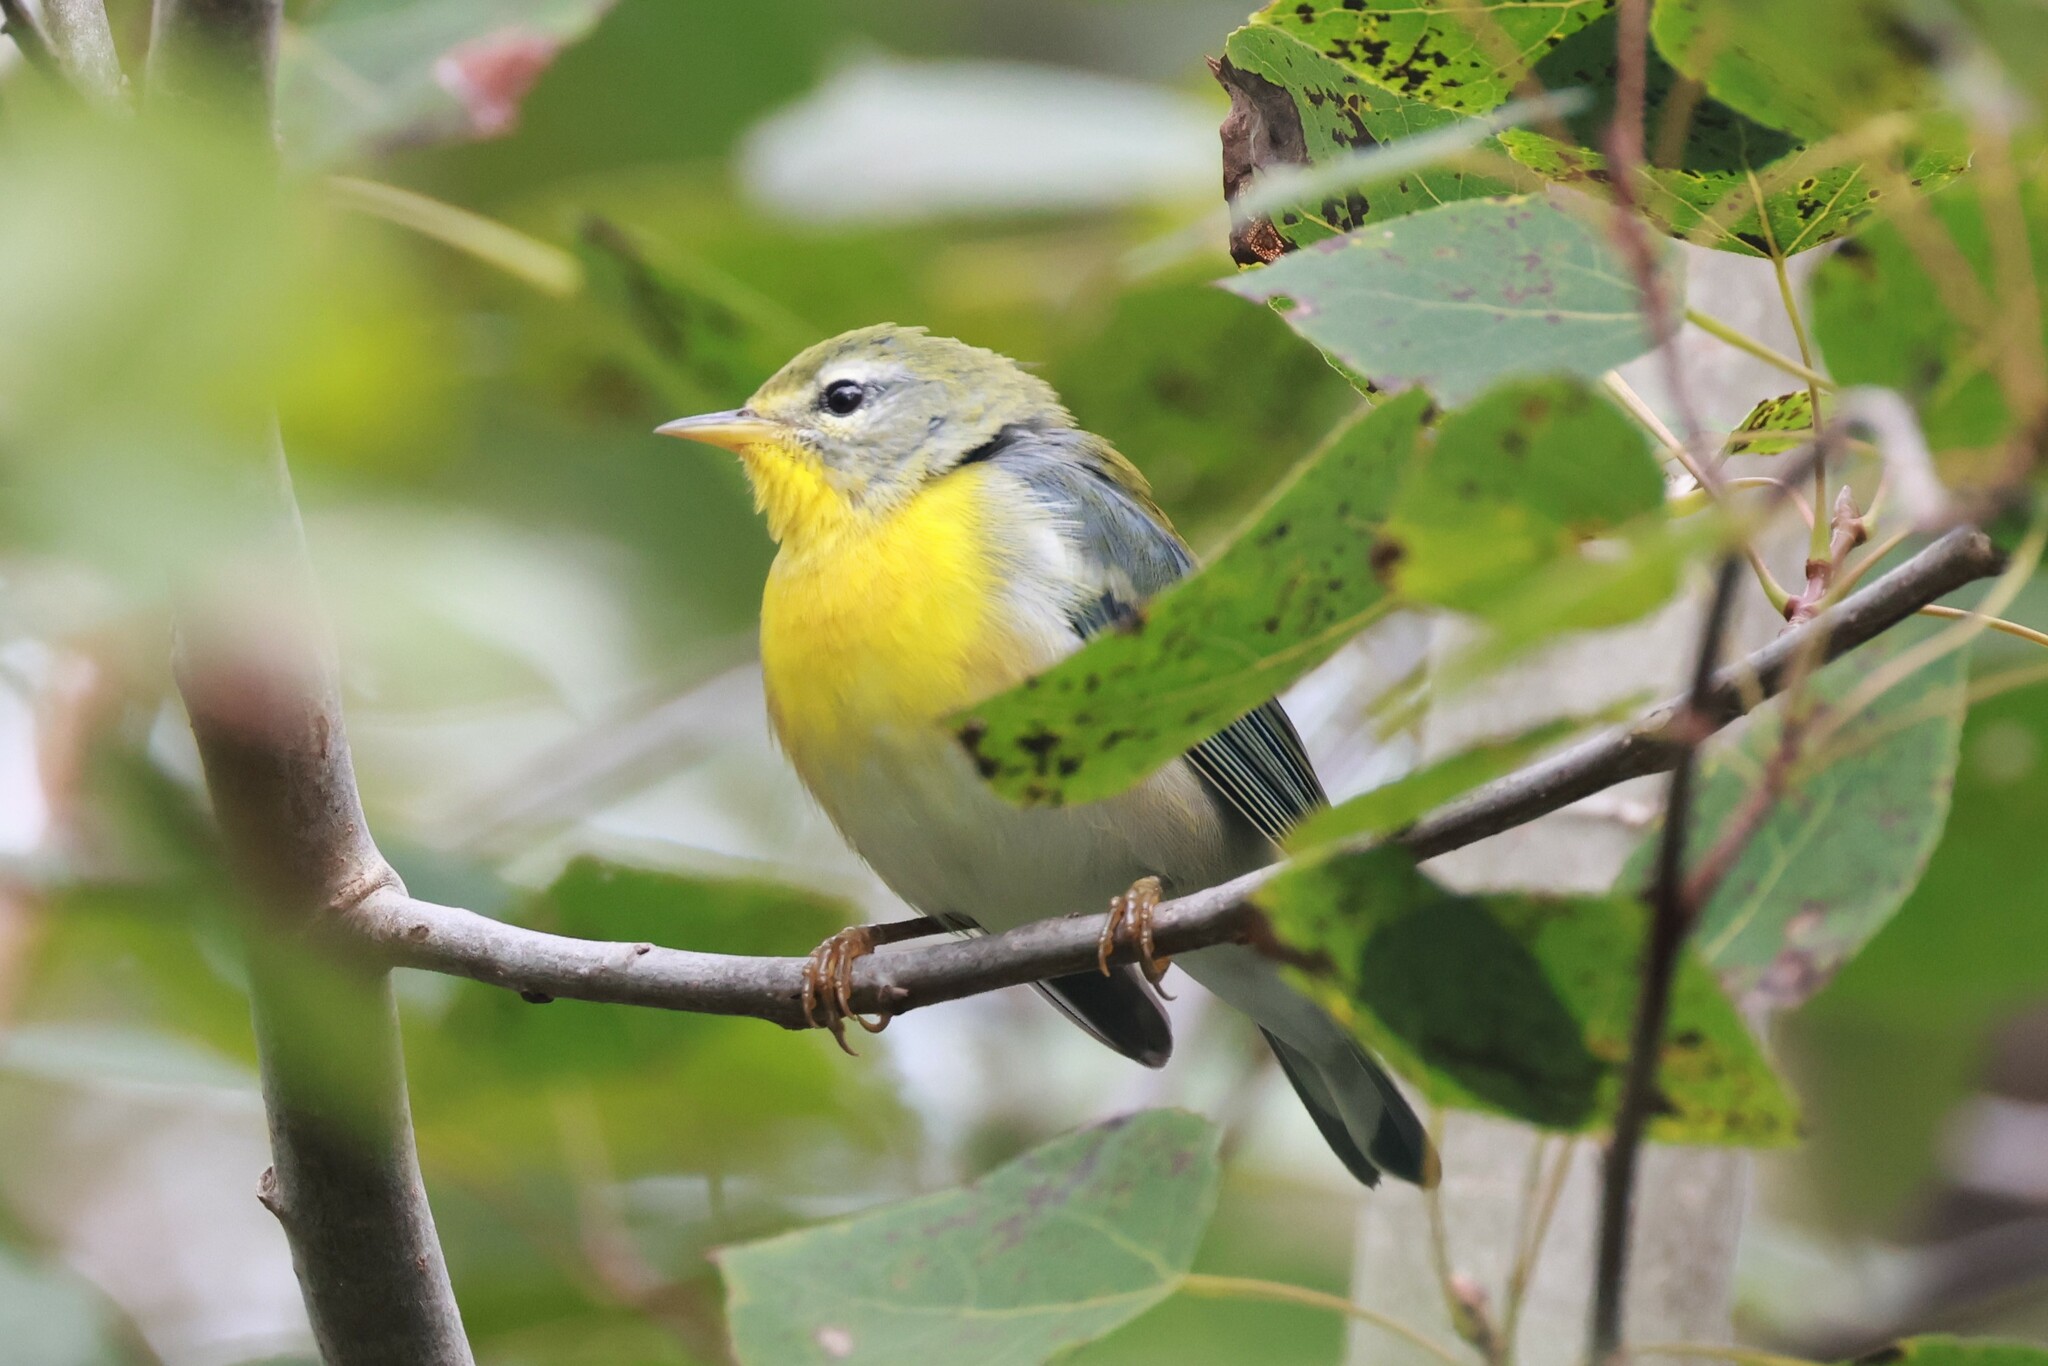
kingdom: Animalia
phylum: Chordata
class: Aves
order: Passeriformes
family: Parulidae
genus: Setophaga
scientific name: Setophaga americana
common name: Northern parula
